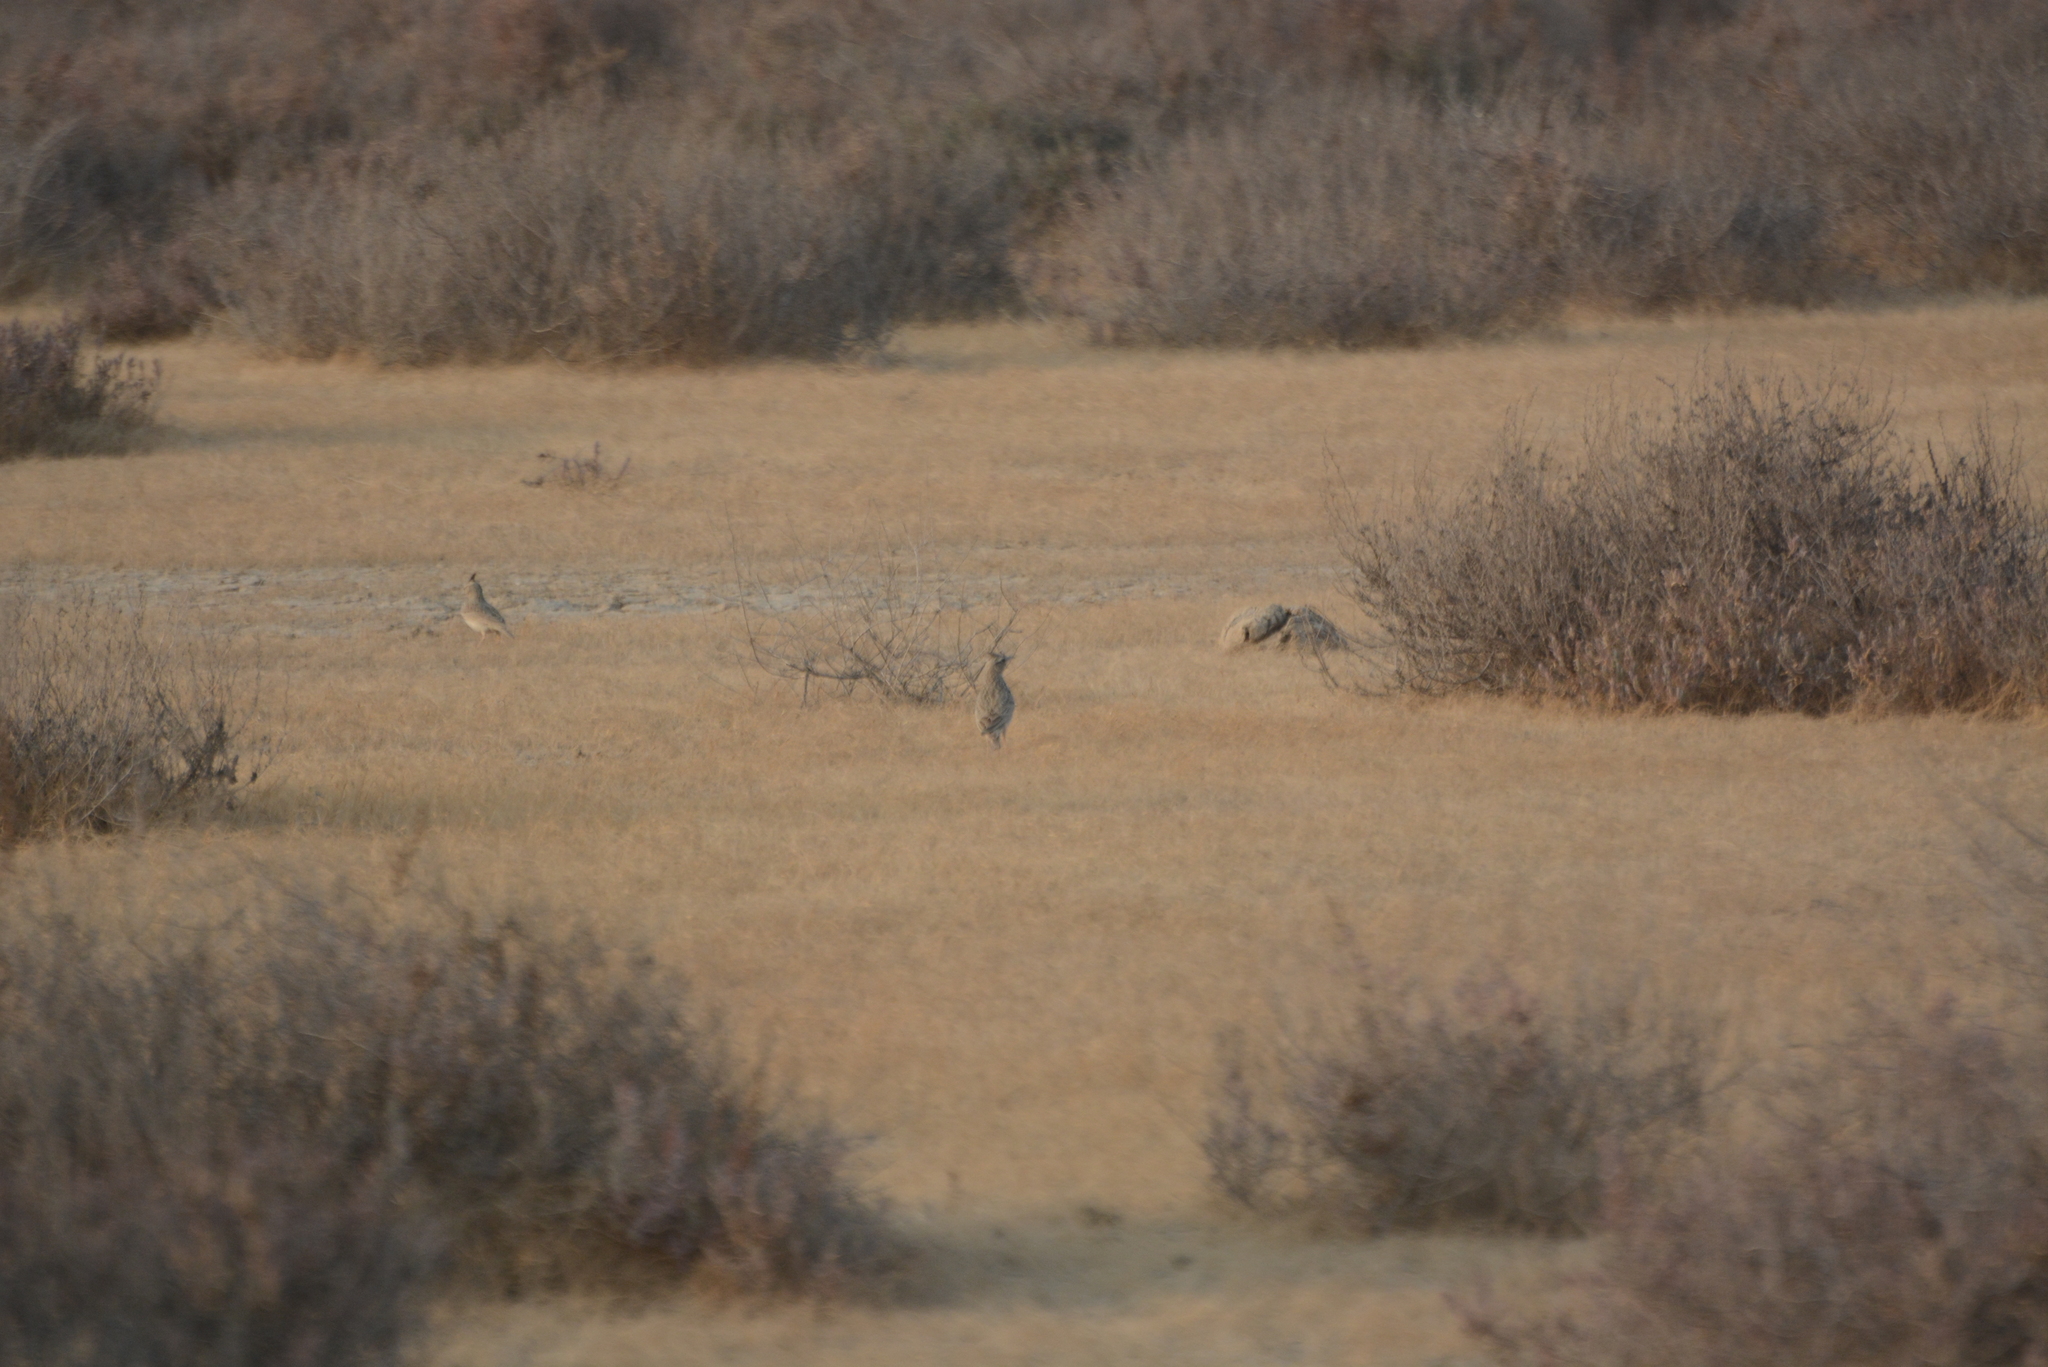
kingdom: Animalia
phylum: Chordata
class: Aves
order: Passeriformes
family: Alaudidae
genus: Galerida
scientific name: Galerida cristata
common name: Crested lark
